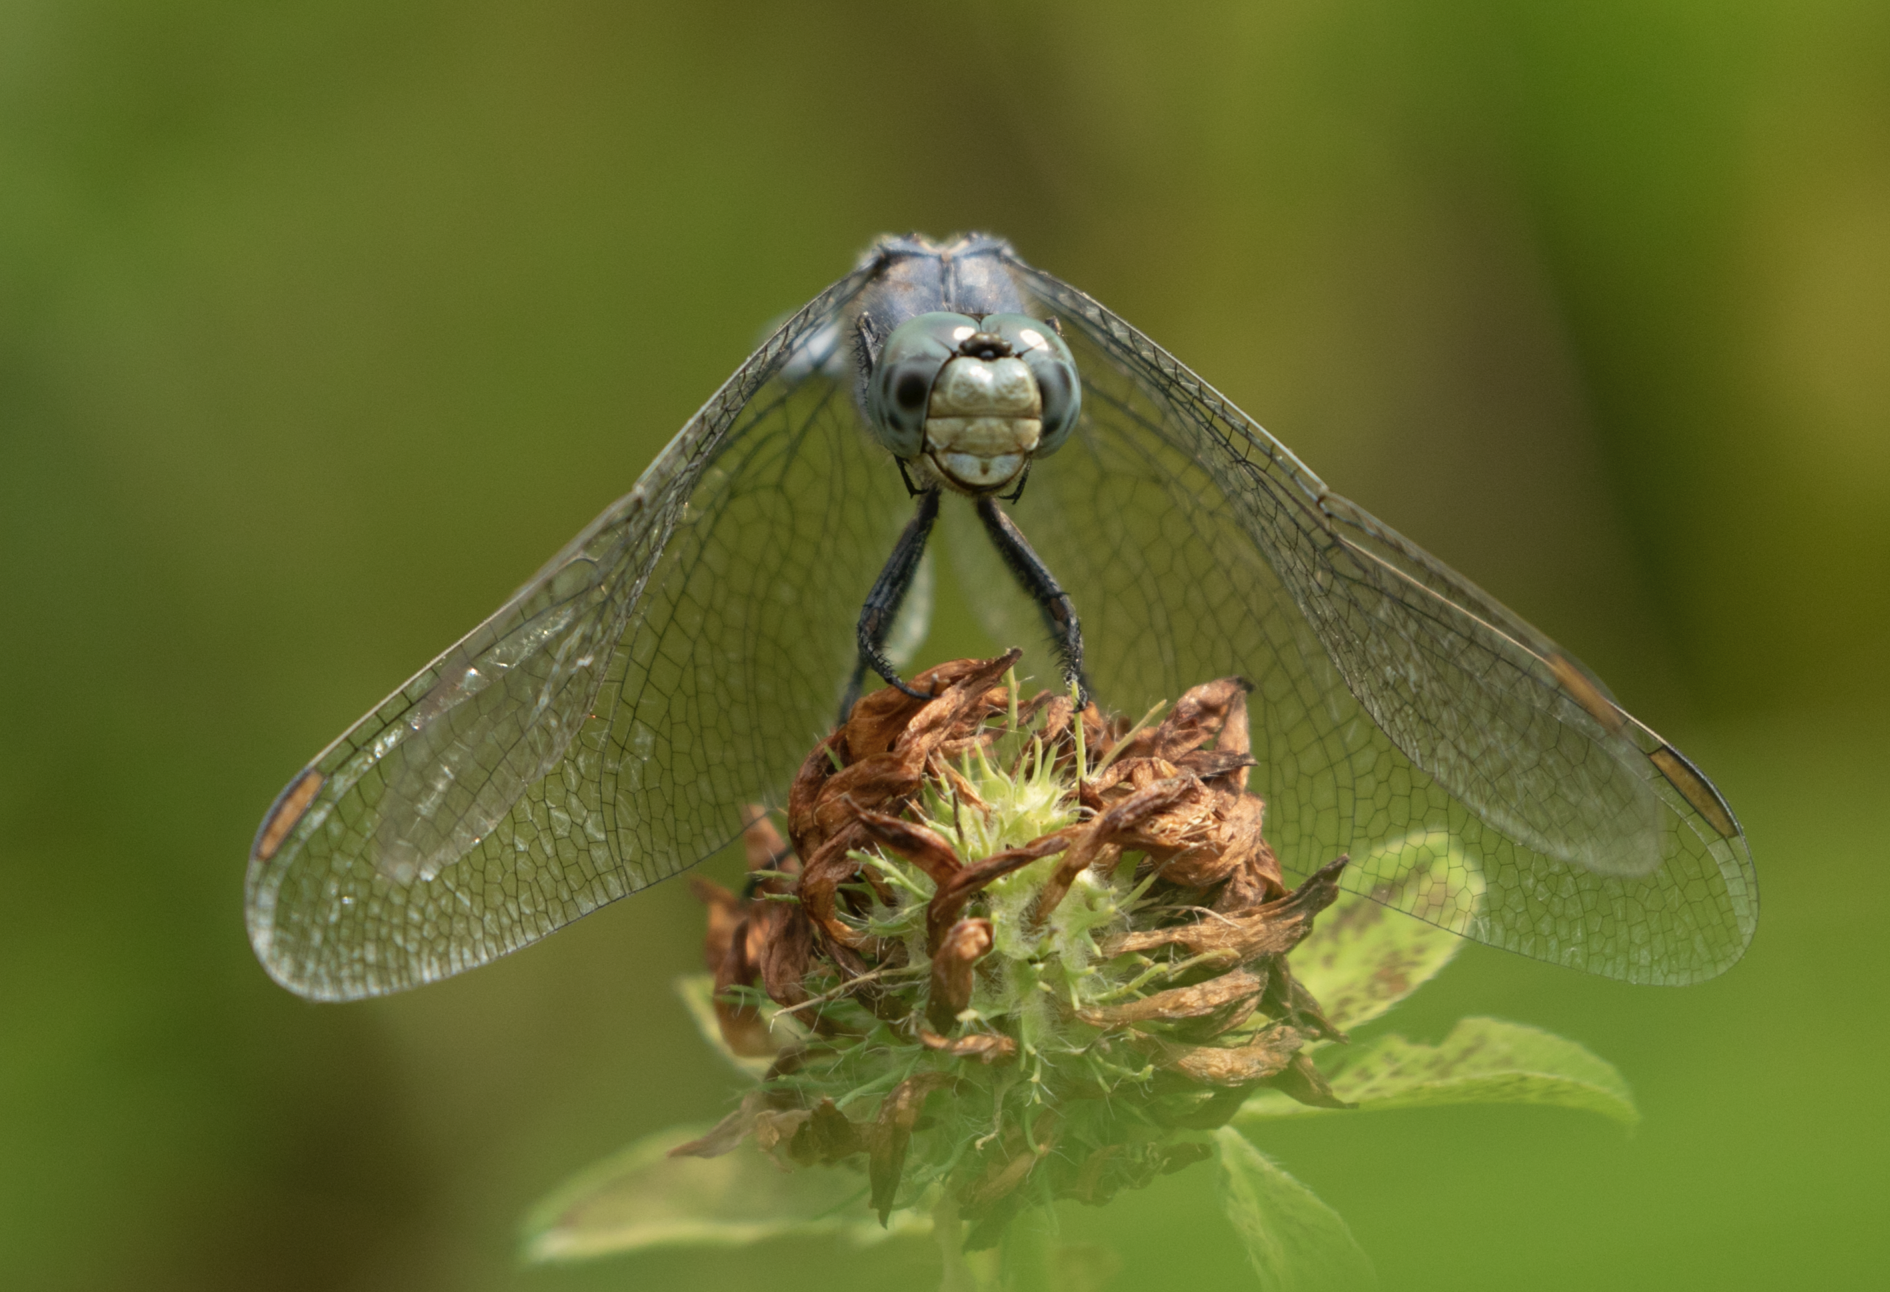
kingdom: Animalia
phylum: Arthropoda
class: Insecta
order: Odonata
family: Libellulidae
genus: Orthetrum
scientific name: Orthetrum coerulescens
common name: Keeled skimmer
